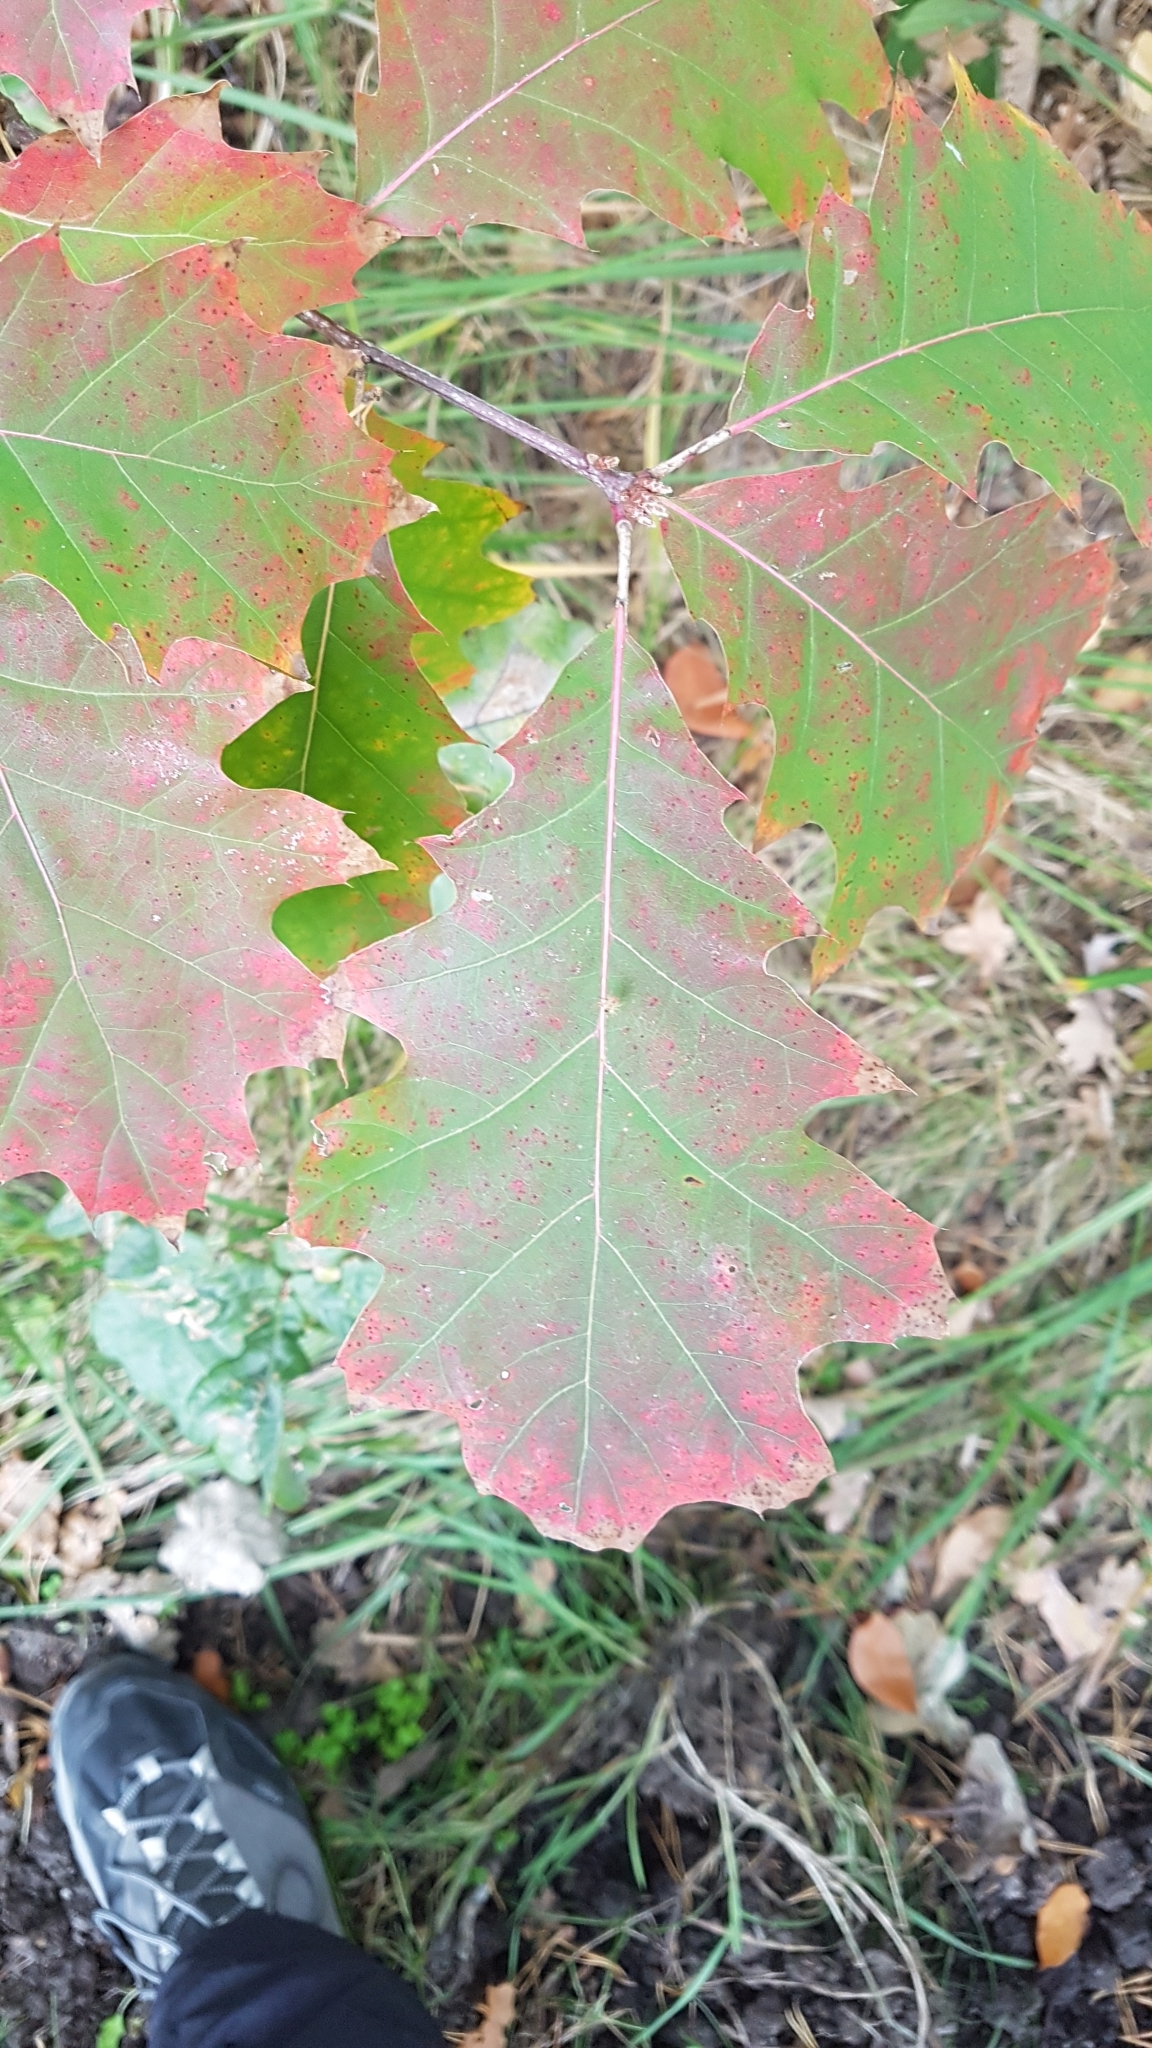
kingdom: Plantae
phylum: Tracheophyta
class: Magnoliopsida
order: Fagales
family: Fagaceae
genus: Quercus
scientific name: Quercus robur
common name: Pedunculate oak
